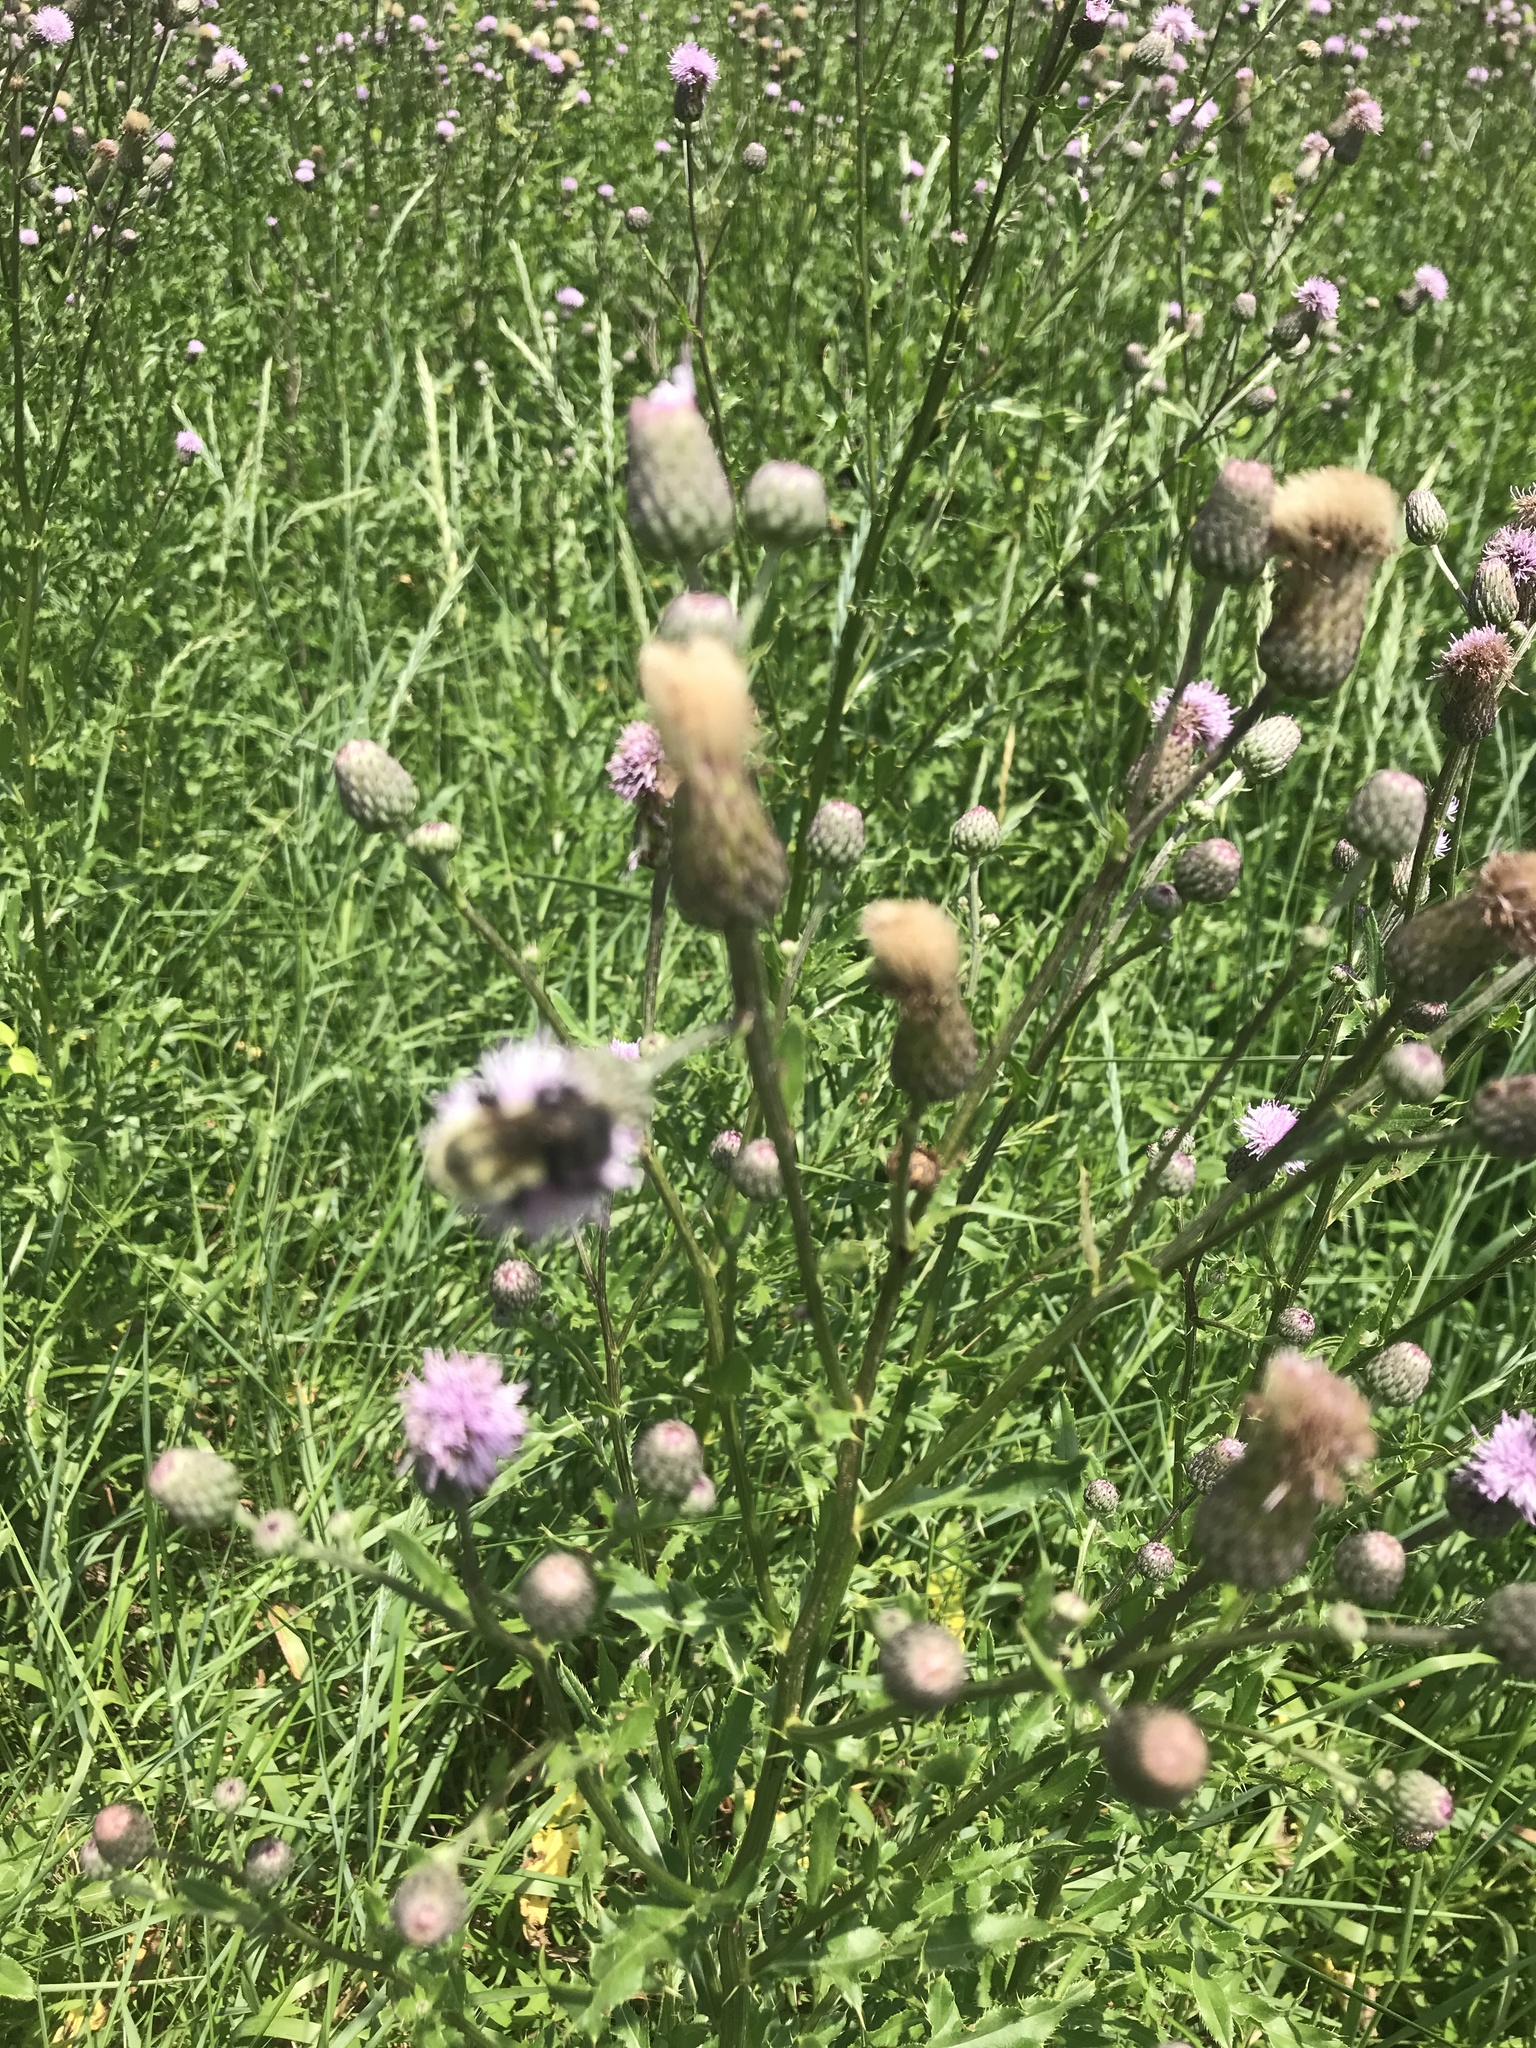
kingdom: Plantae
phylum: Tracheophyta
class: Magnoliopsida
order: Asterales
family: Asteraceae
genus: Cirsium
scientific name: Cirsium arvense
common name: Creeping thistle
